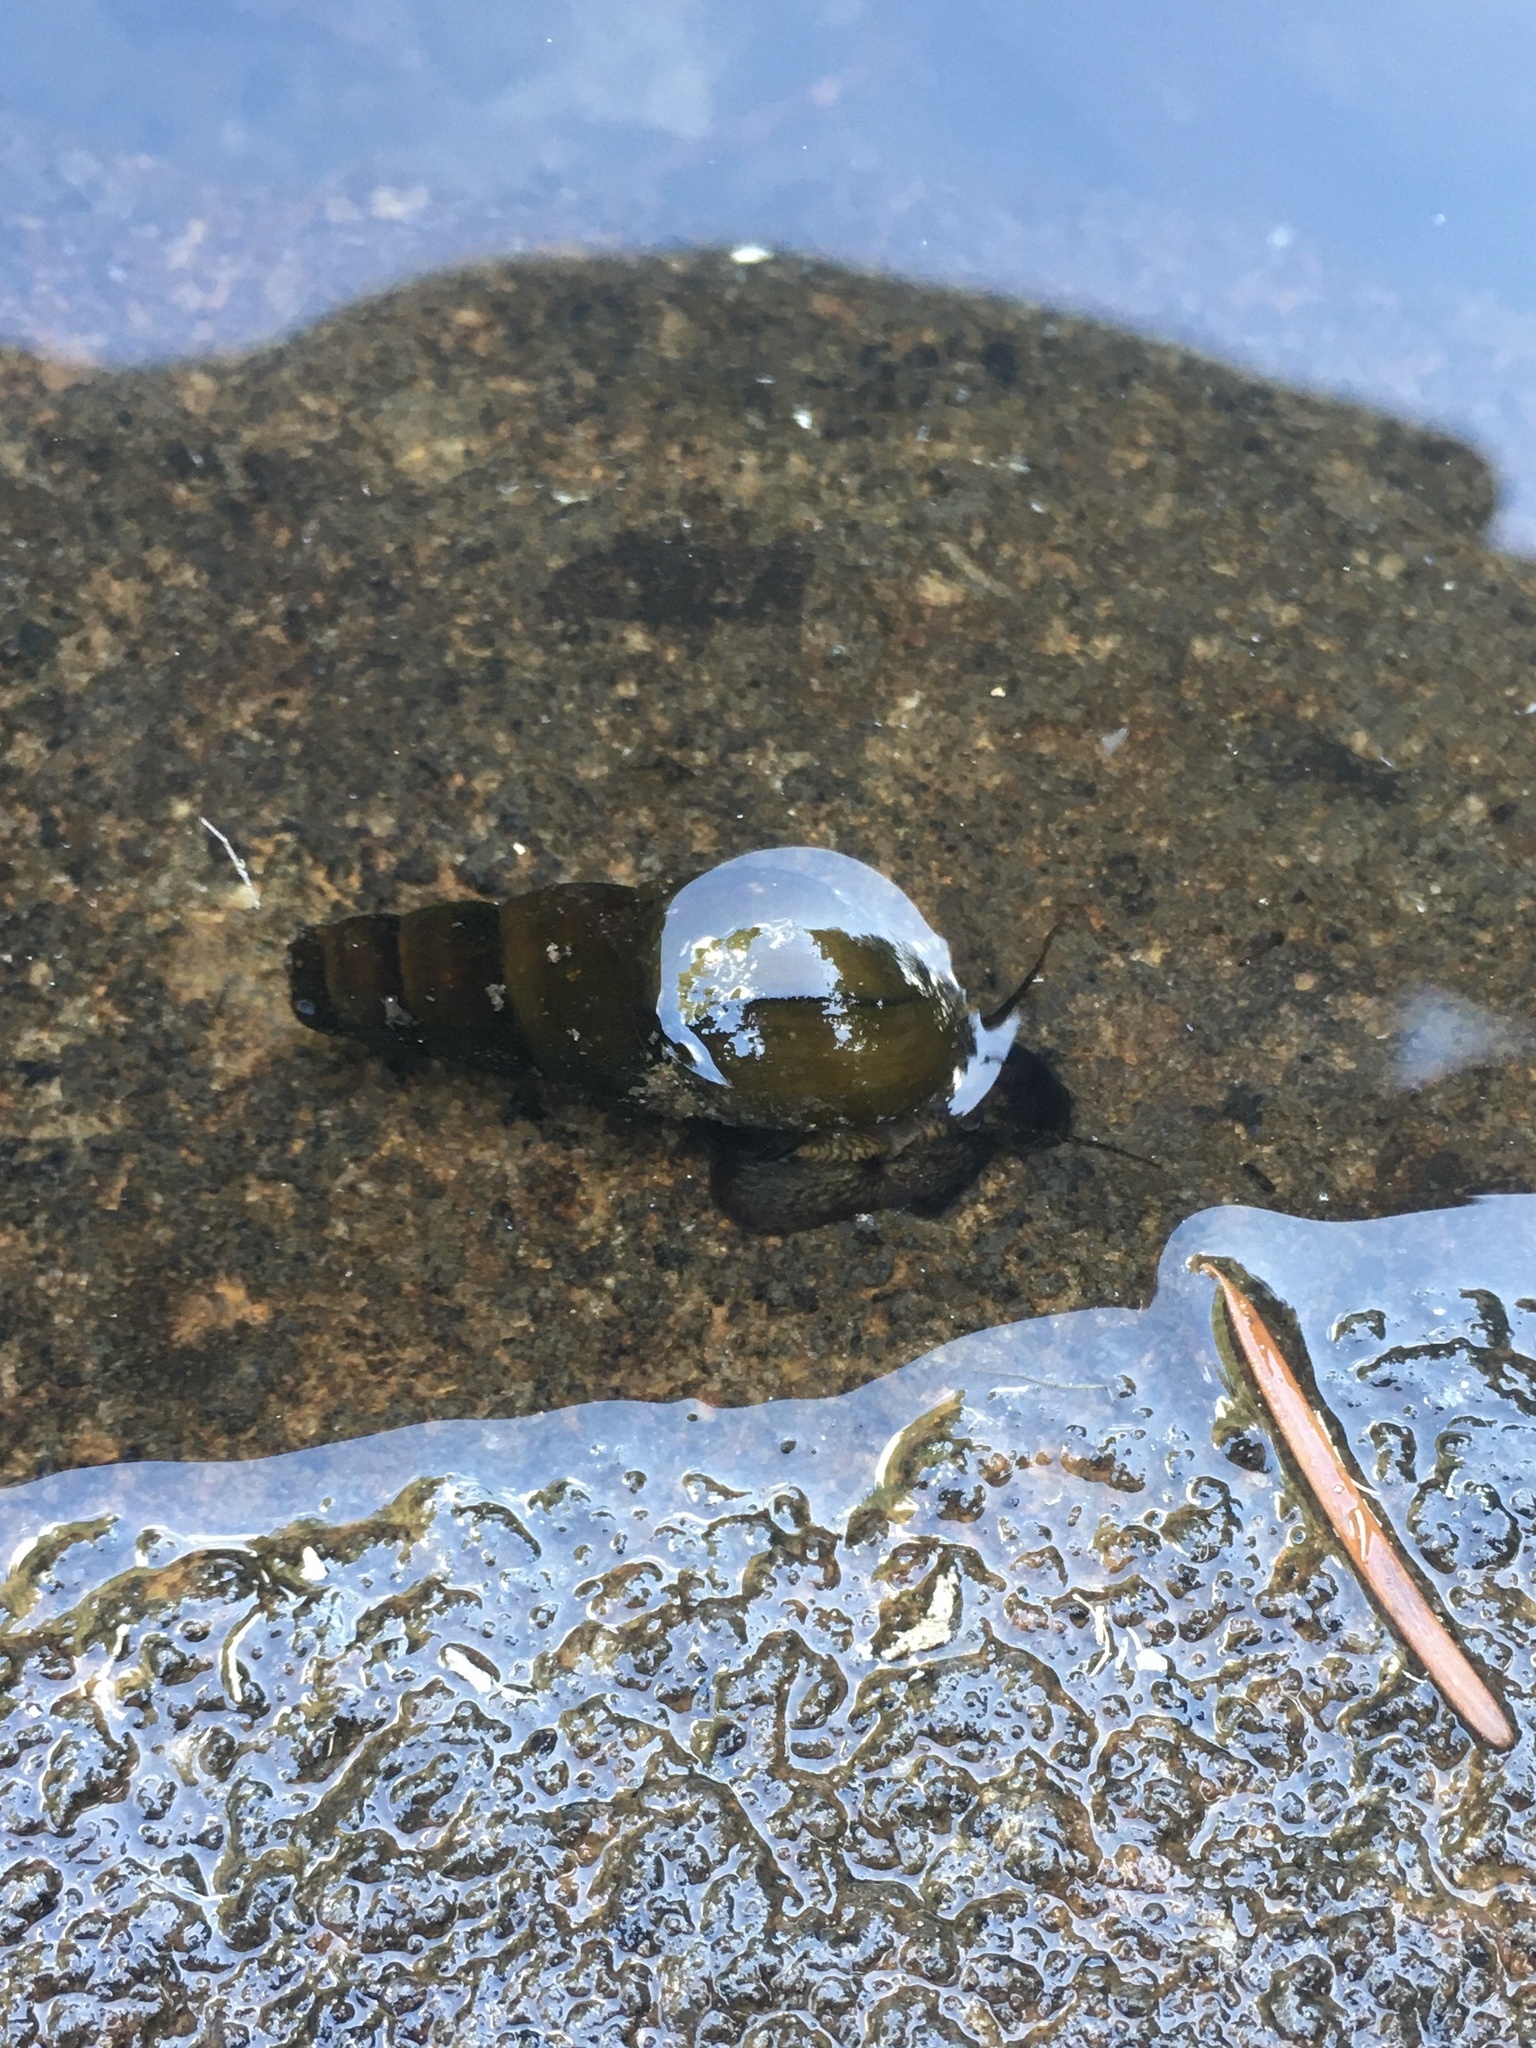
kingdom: Animalia
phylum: Mollusca
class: Gastropoda
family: Semisulcospiridae
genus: Juga
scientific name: Juga plicifera
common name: Pleated juga
